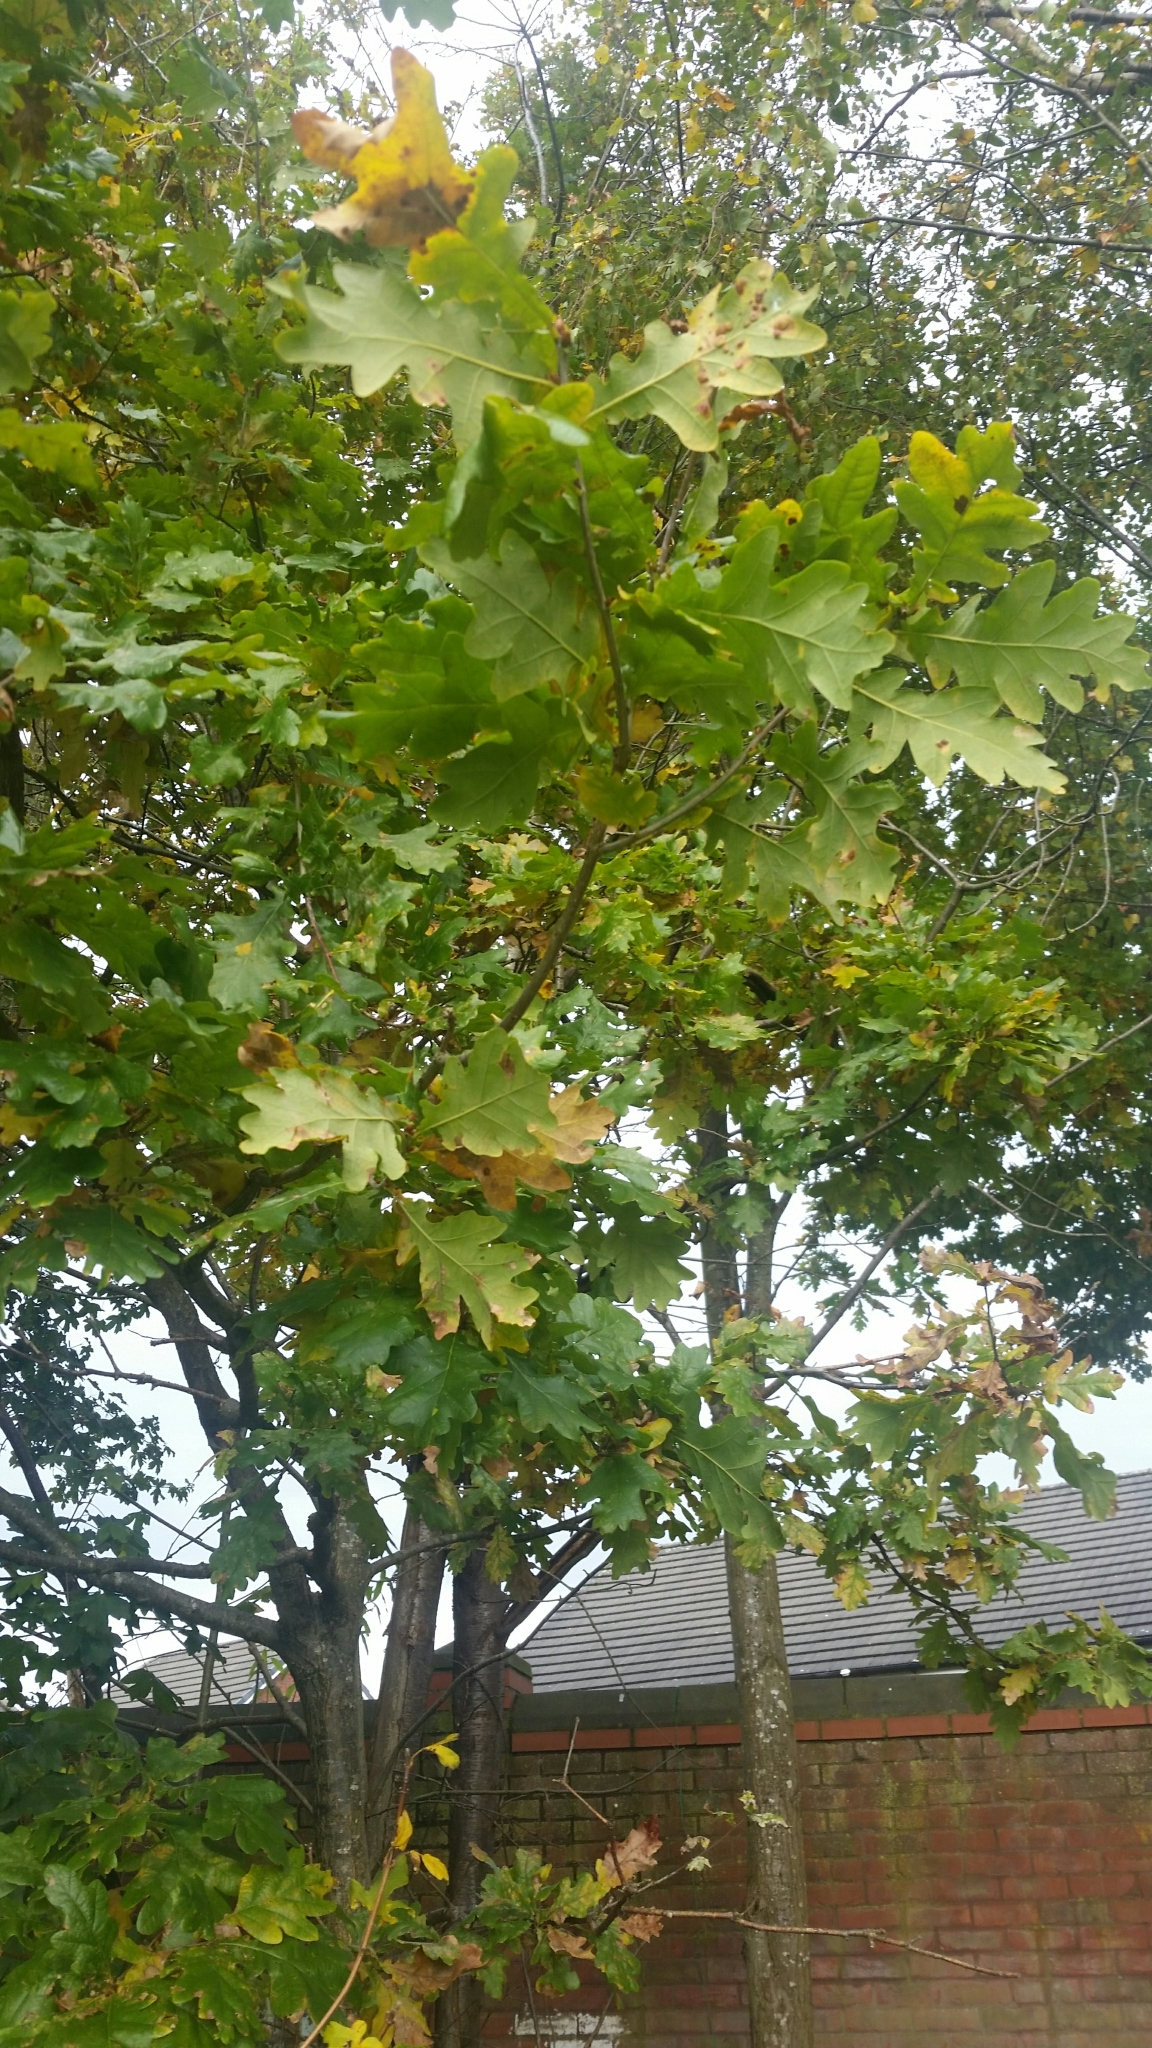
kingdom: Plantae
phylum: Tracheophyta
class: Magnoliopsida
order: Fagales
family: Fagaceae
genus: Quercus
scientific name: Quercus robur
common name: Pedunculate oak
